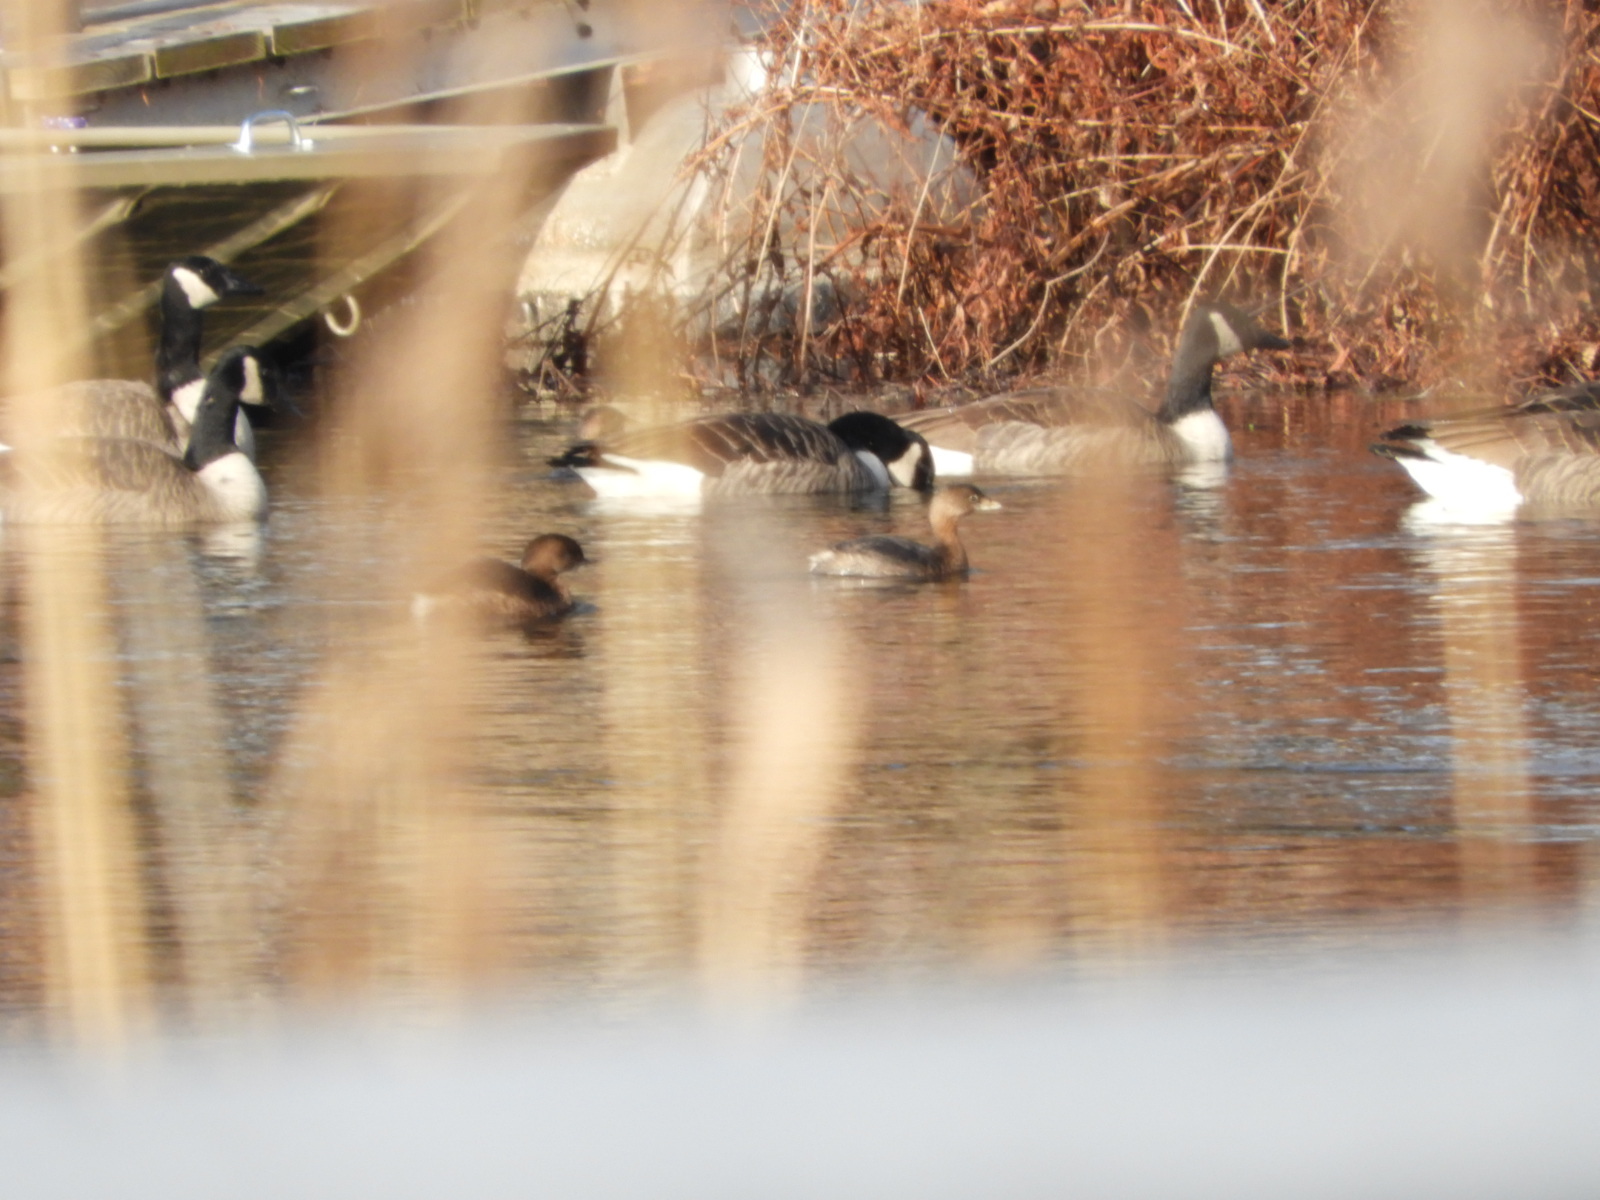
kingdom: Animalia
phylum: Chordata
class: Aves
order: Podicipediformes
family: Podicipedidae
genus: Podilymbus
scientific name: Podilymbus podiceps
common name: Pied-billed grebe
